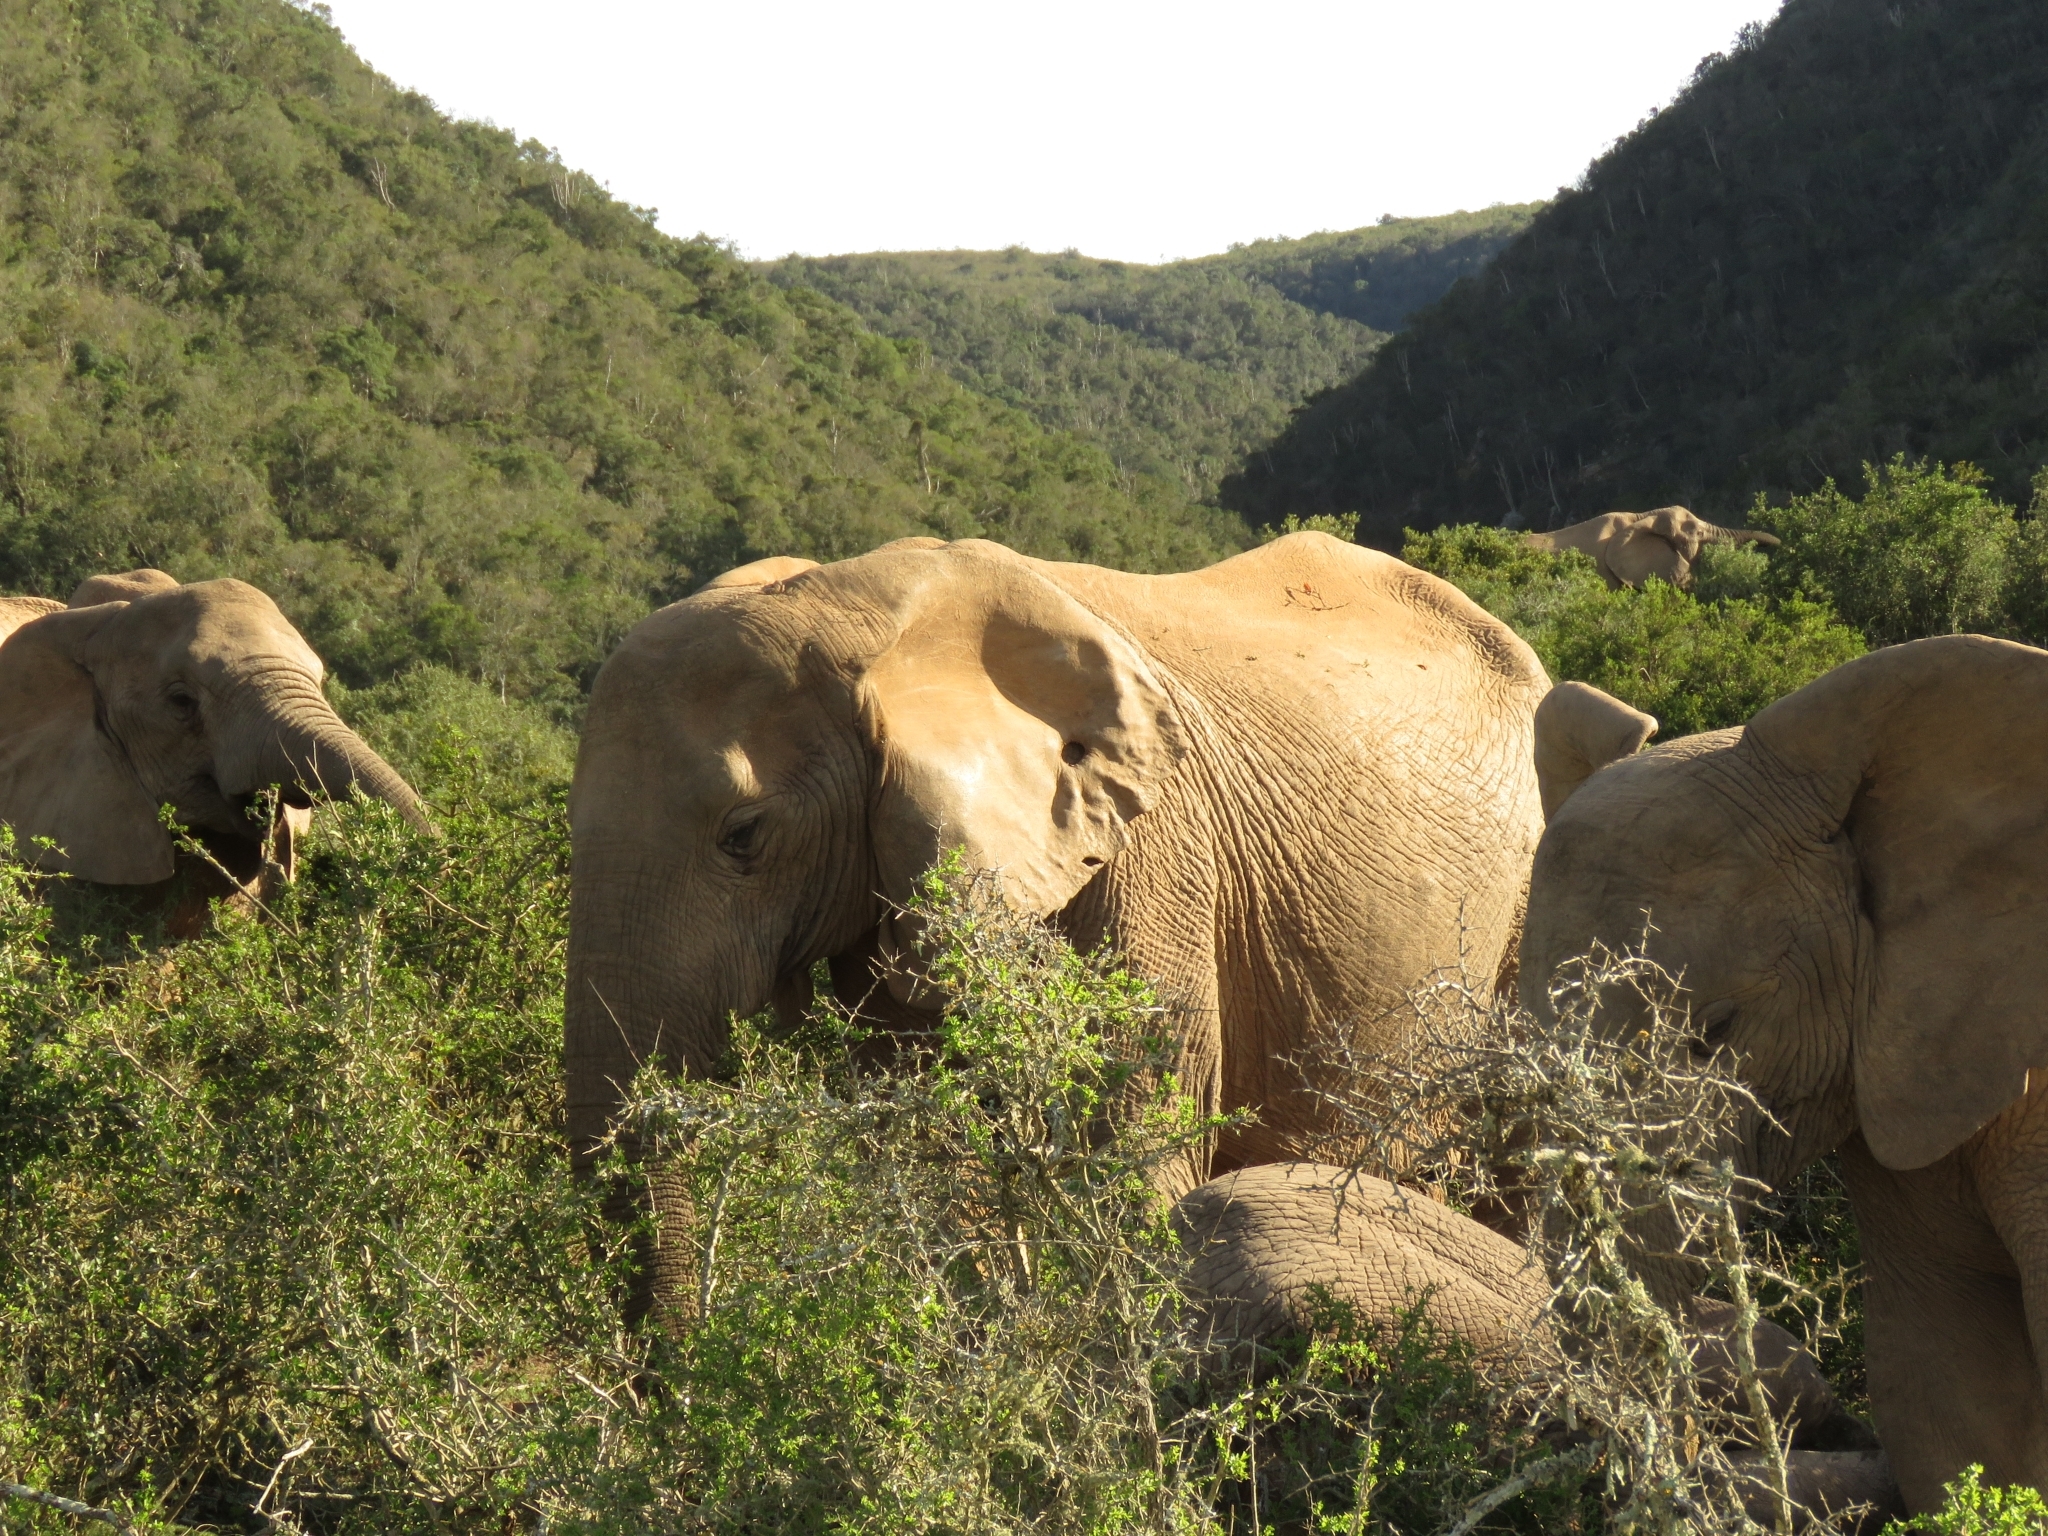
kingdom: Animalia
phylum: Chordata
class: Mammalia
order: Proboscidea
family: Elephantidae
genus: Loxodonta
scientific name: Loxodonta africana
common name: African elephant
